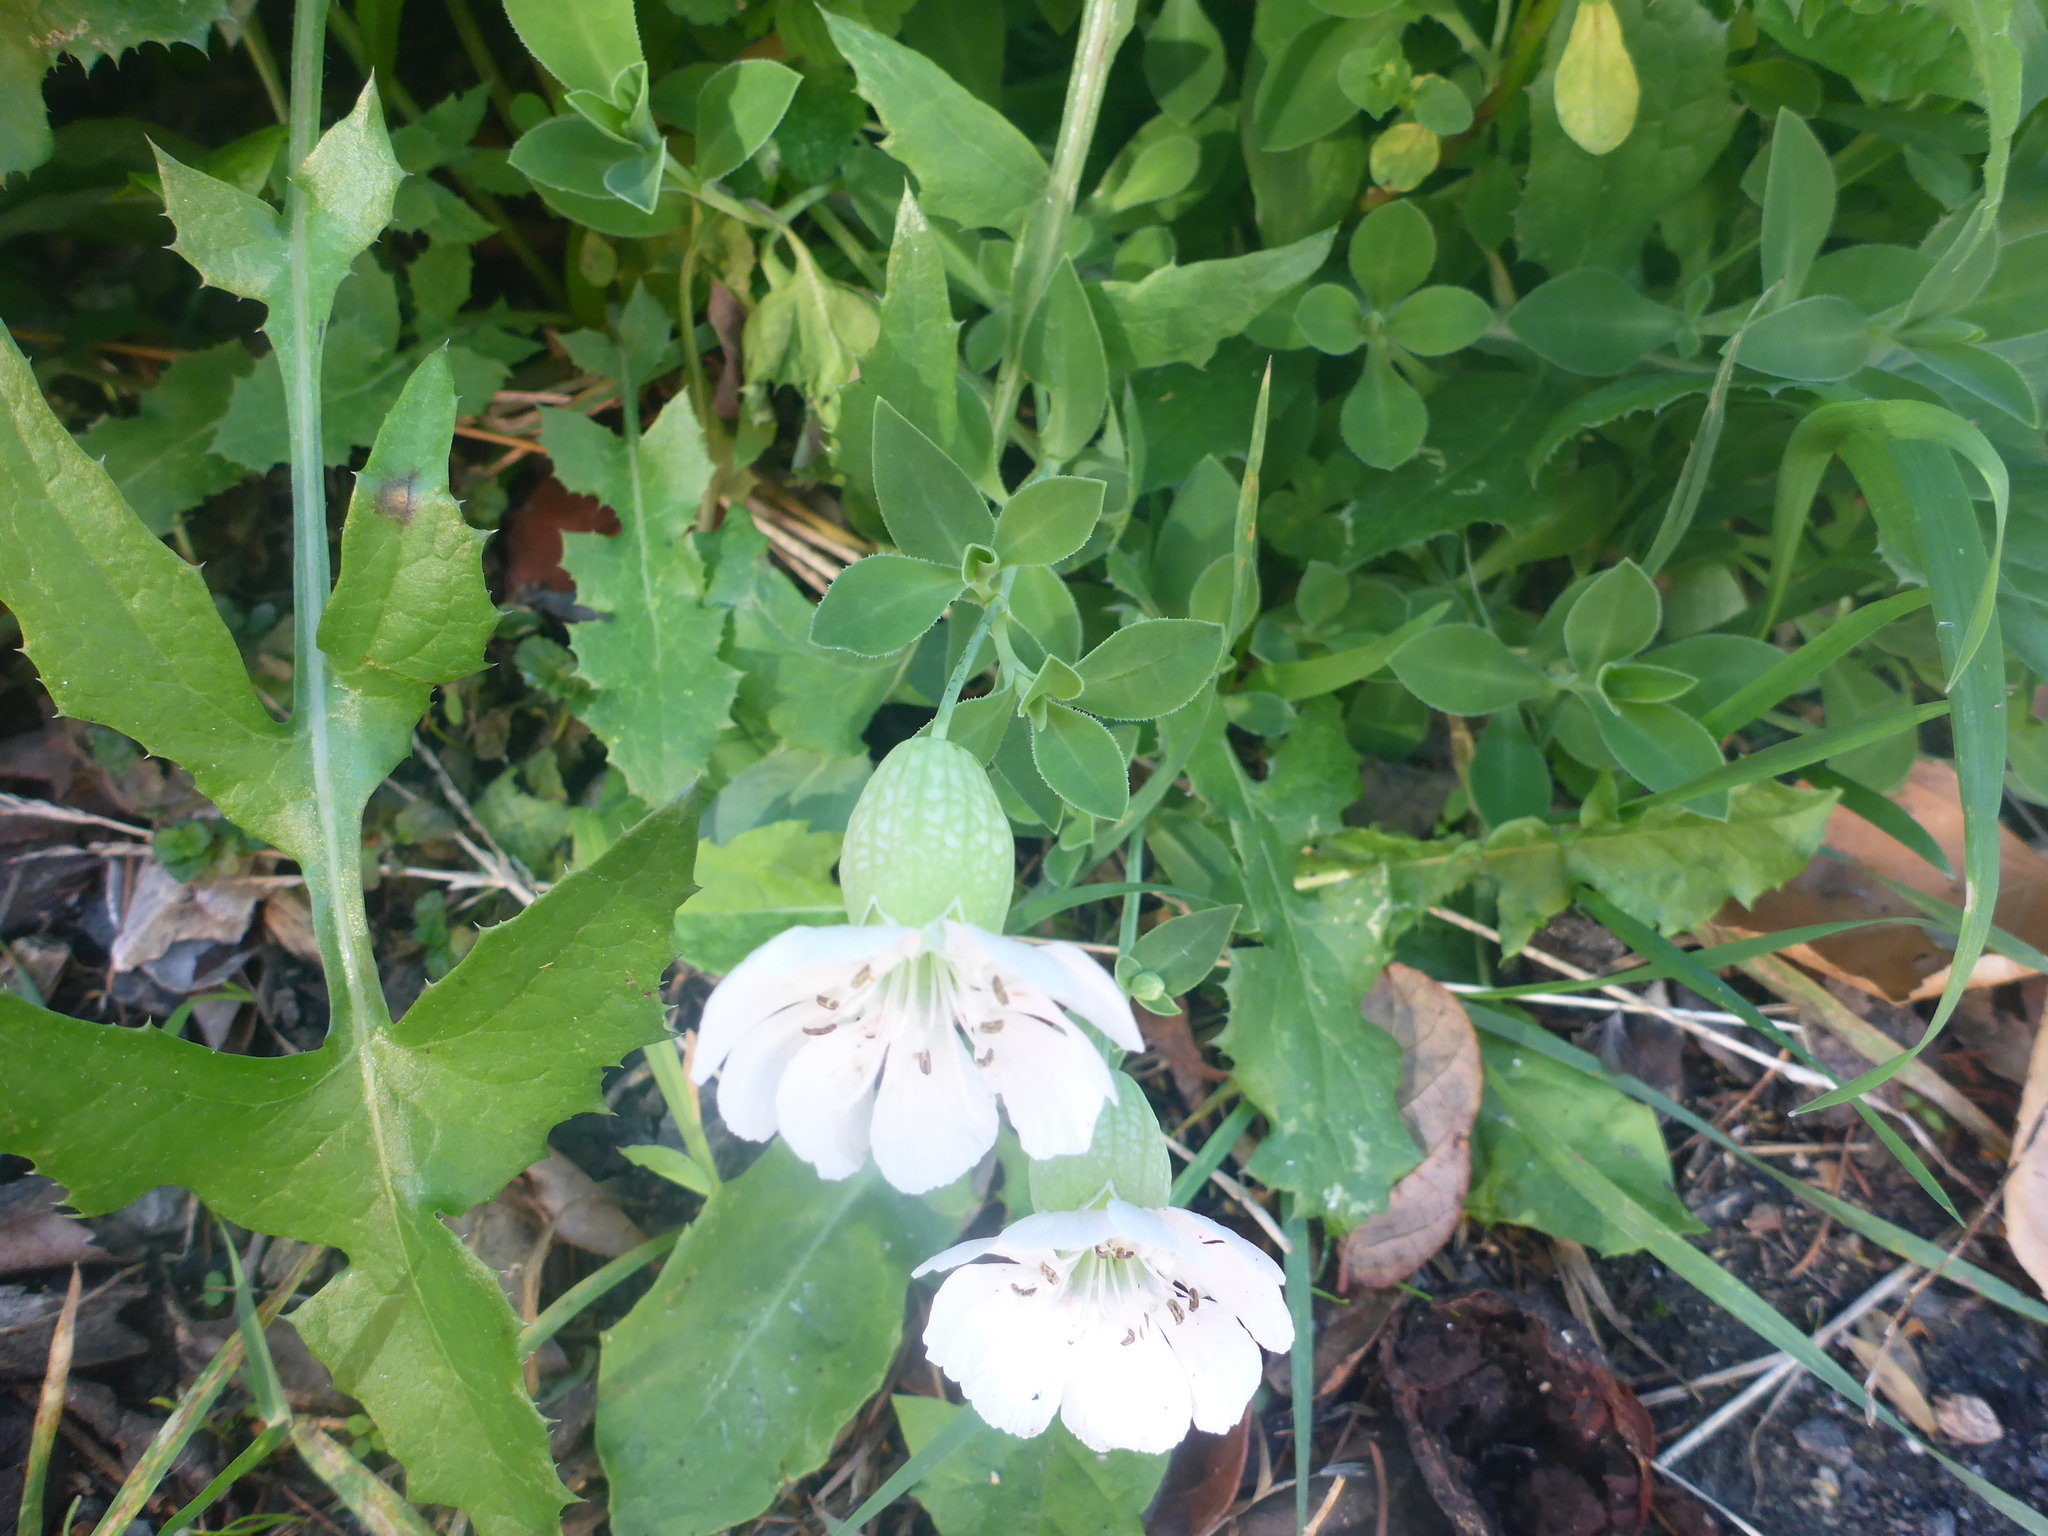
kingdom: Plantae
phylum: Tracheophyta
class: Magnoliopsida
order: Caryophyllales
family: Caryophyllaceae
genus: Silene
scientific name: Silene uniflora
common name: Sea campion
